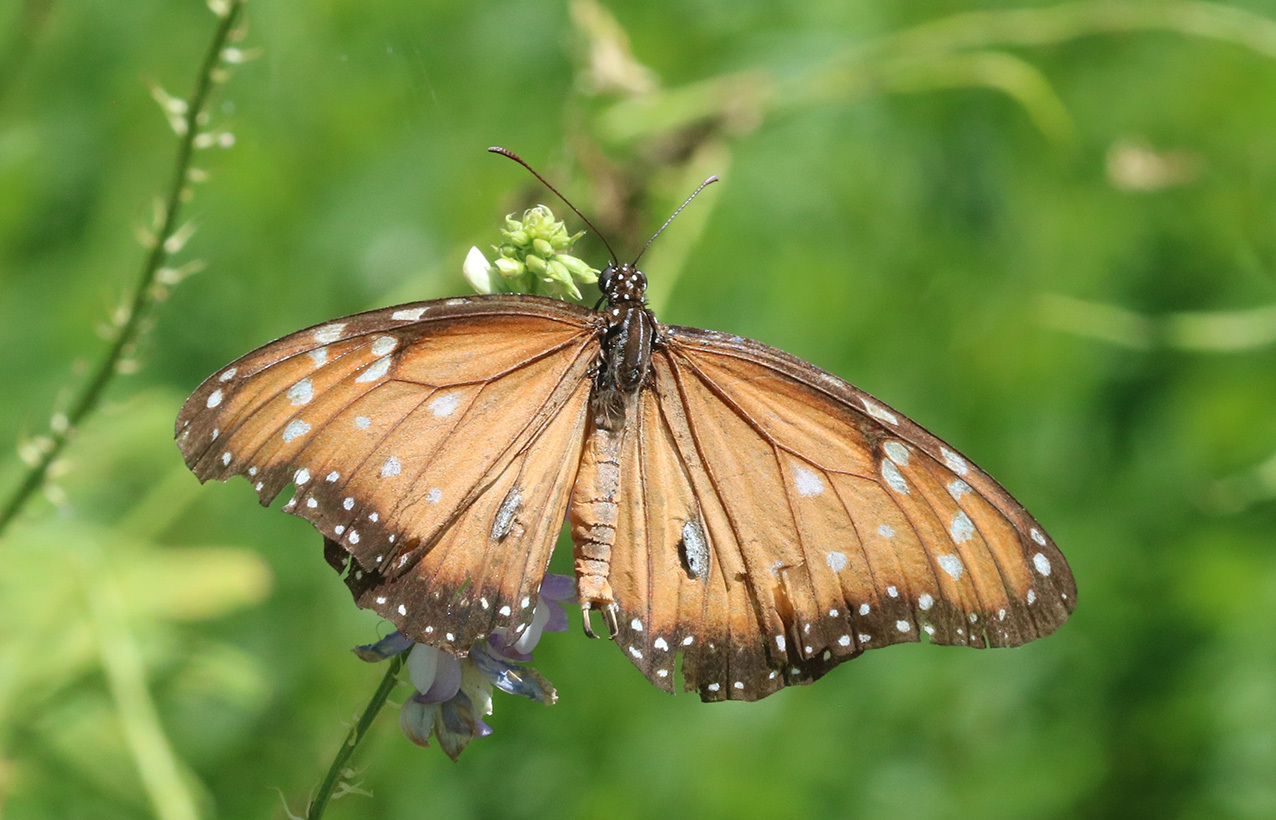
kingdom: Animalia
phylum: Arthropoda
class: Insecta
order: Lepidoptera
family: Nymphalidae
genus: Danaus
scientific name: Danaus eresimus
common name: Soldier
